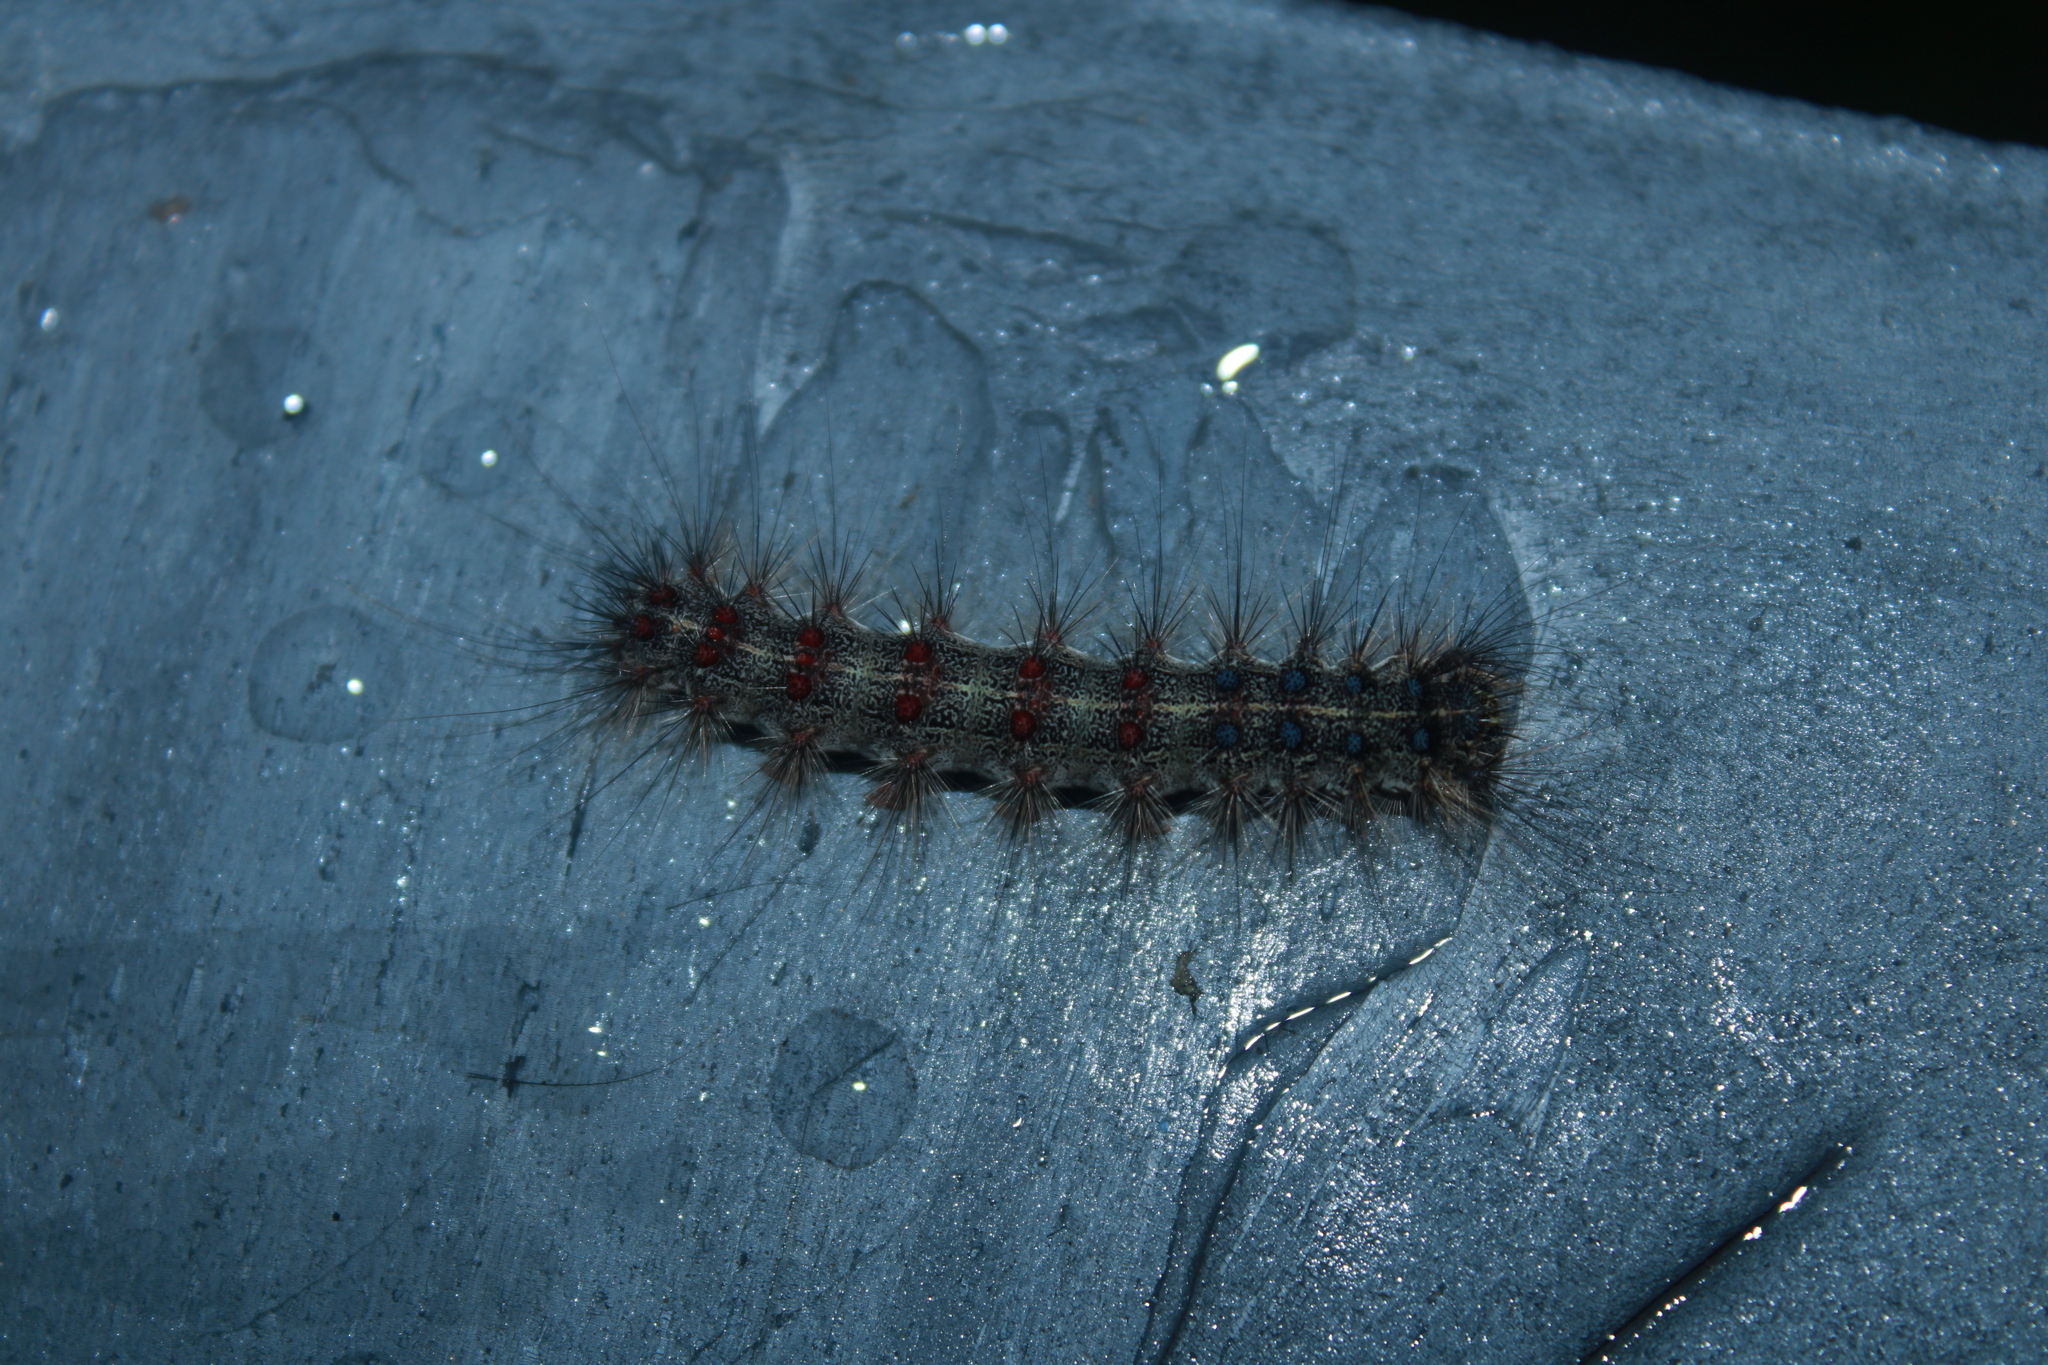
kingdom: Animalia
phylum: Arthropoda
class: Insecta
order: Lepidoptera
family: Erebidae
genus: Lymantria
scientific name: Lymantria dispar
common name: Gypsy moth
